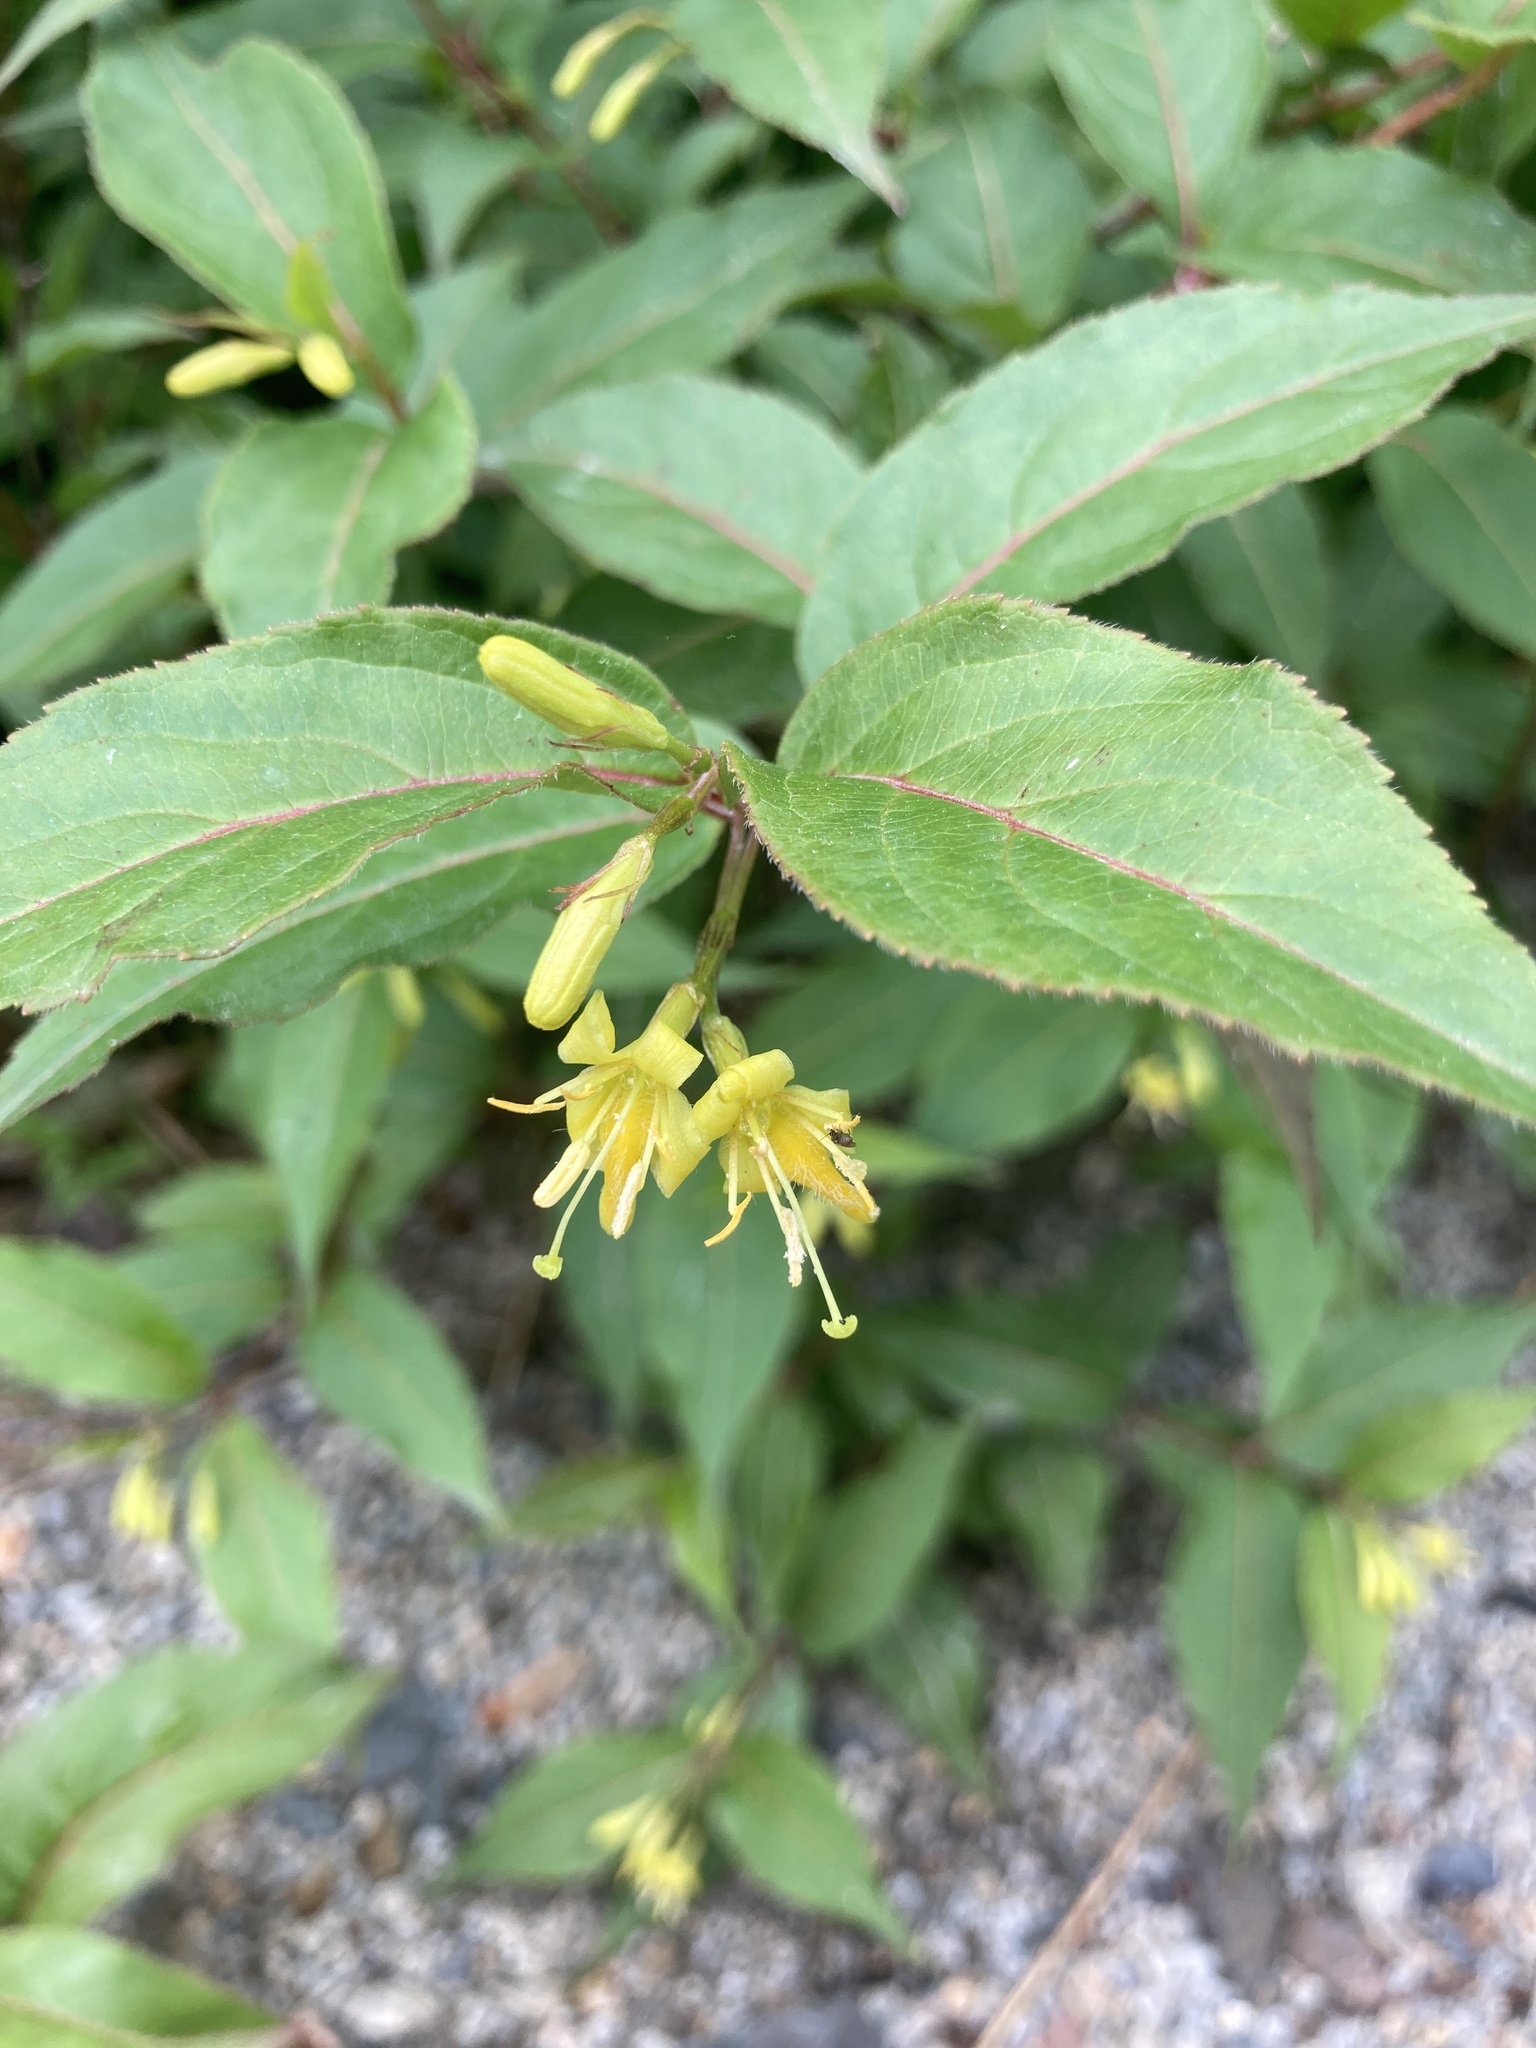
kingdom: Plantae
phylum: Tracheophyta
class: Magnoliopsida
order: Dipsacales
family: Caprifoliaceae
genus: Diervilla
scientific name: Diervilla lonicera
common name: Bush-honeysuckle
